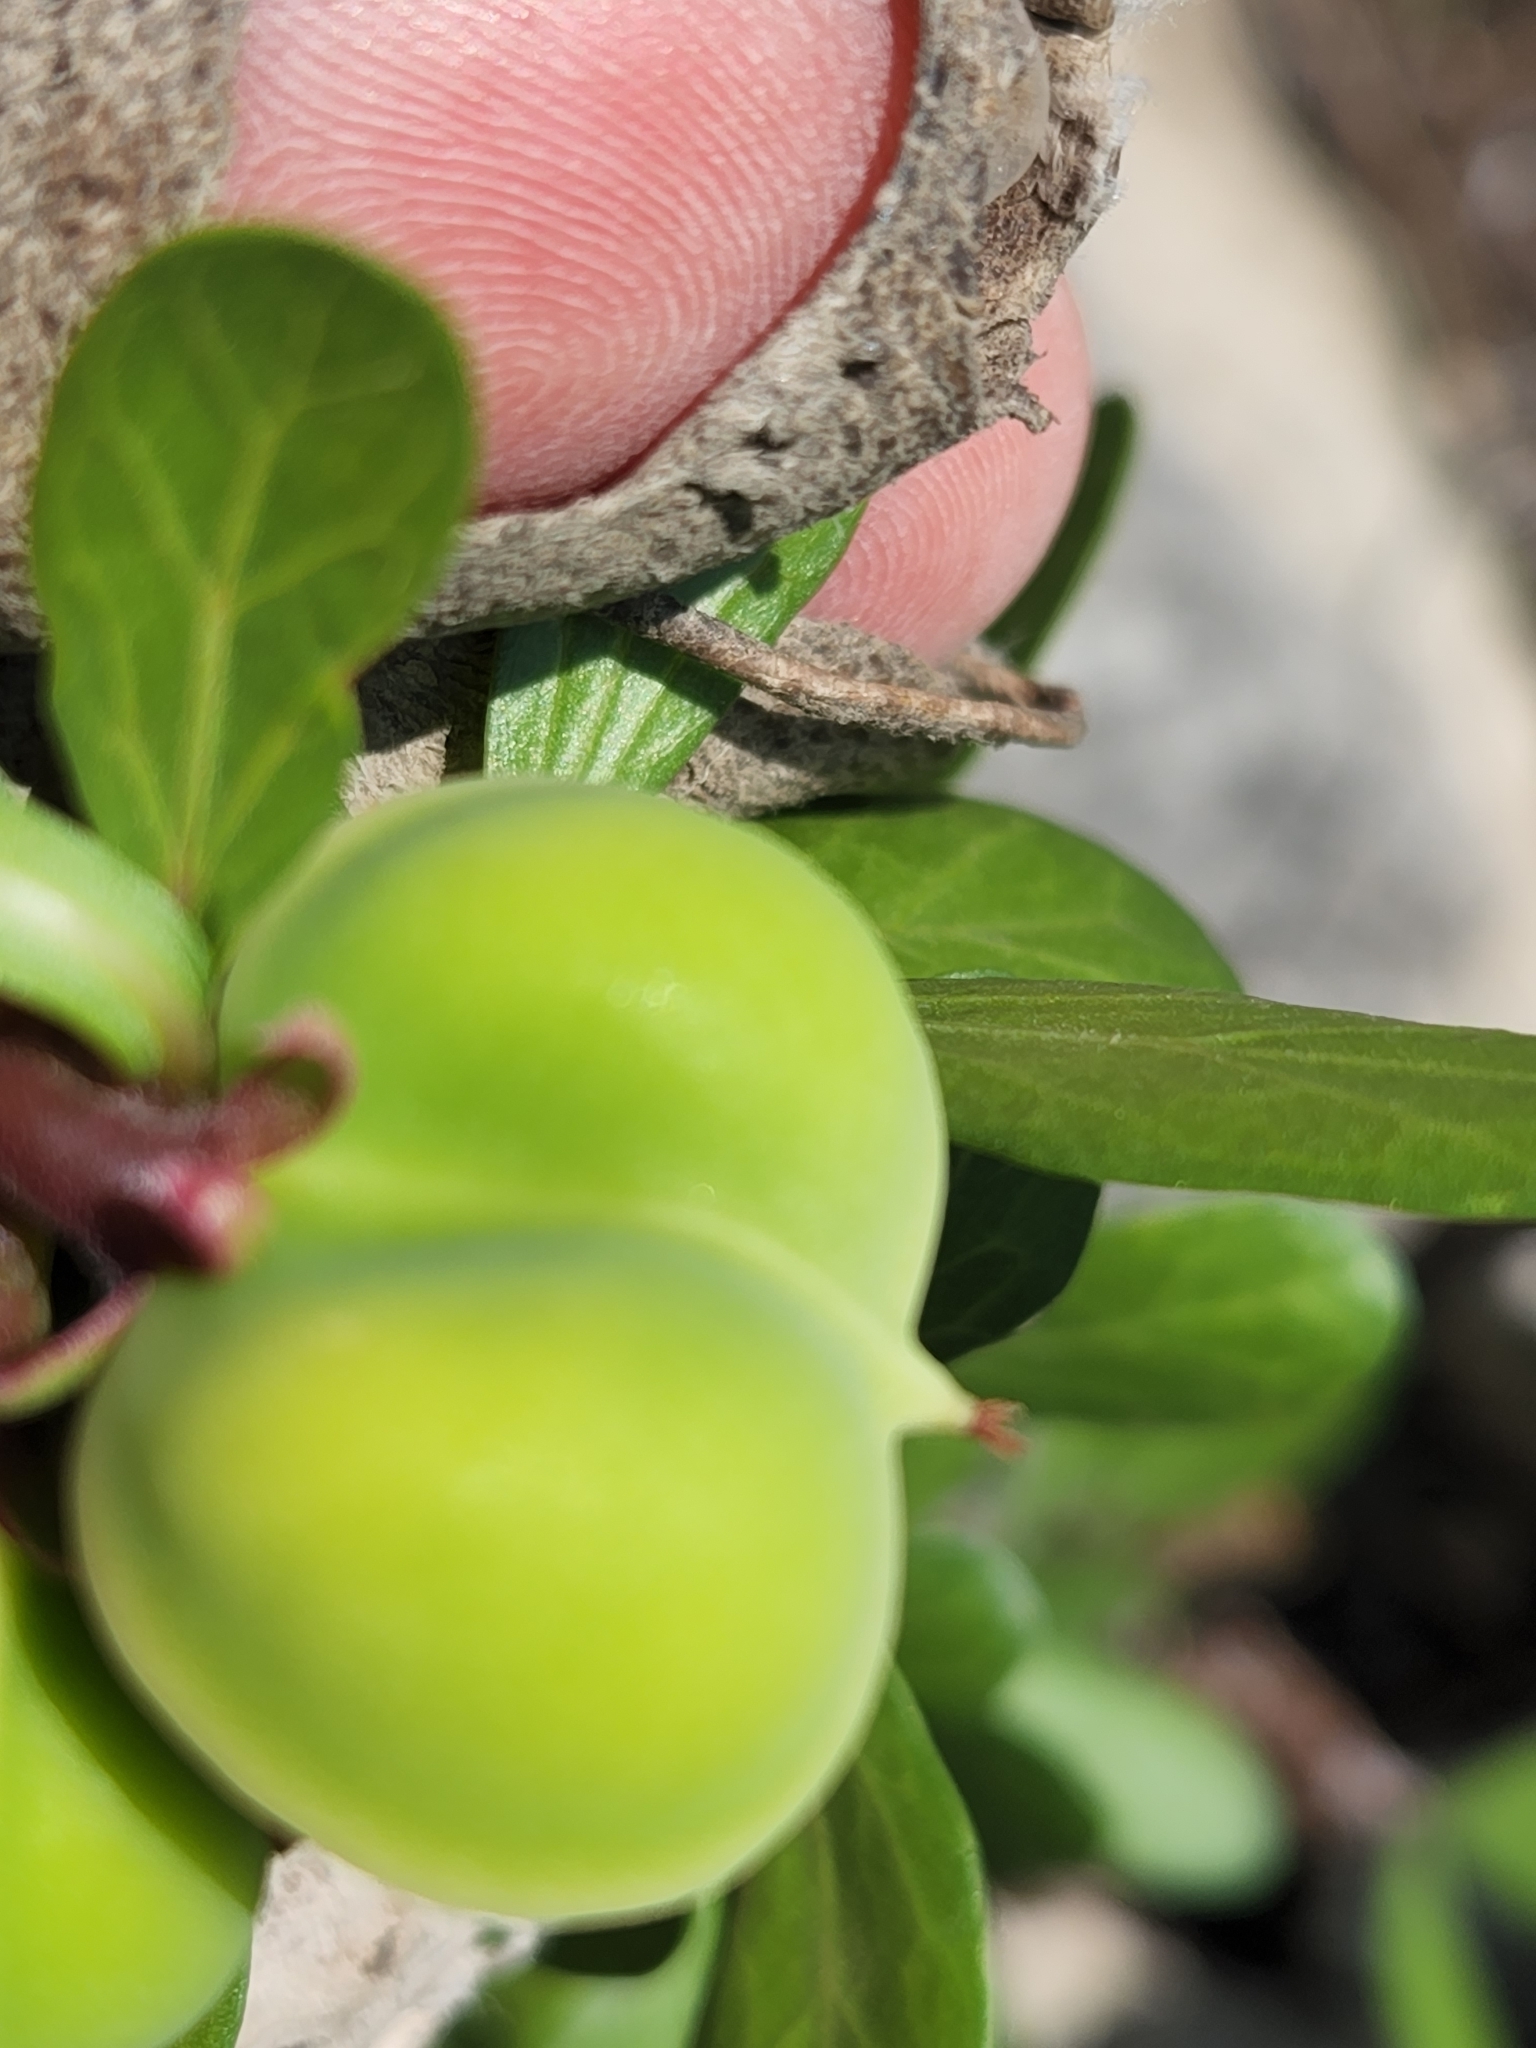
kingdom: Plantae
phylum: Tracheophyta
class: Magnoliopsida
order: Malpighiales
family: Euphorbiaceae
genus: Jatropha
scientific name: Jatropha dioica
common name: Leatherstem
